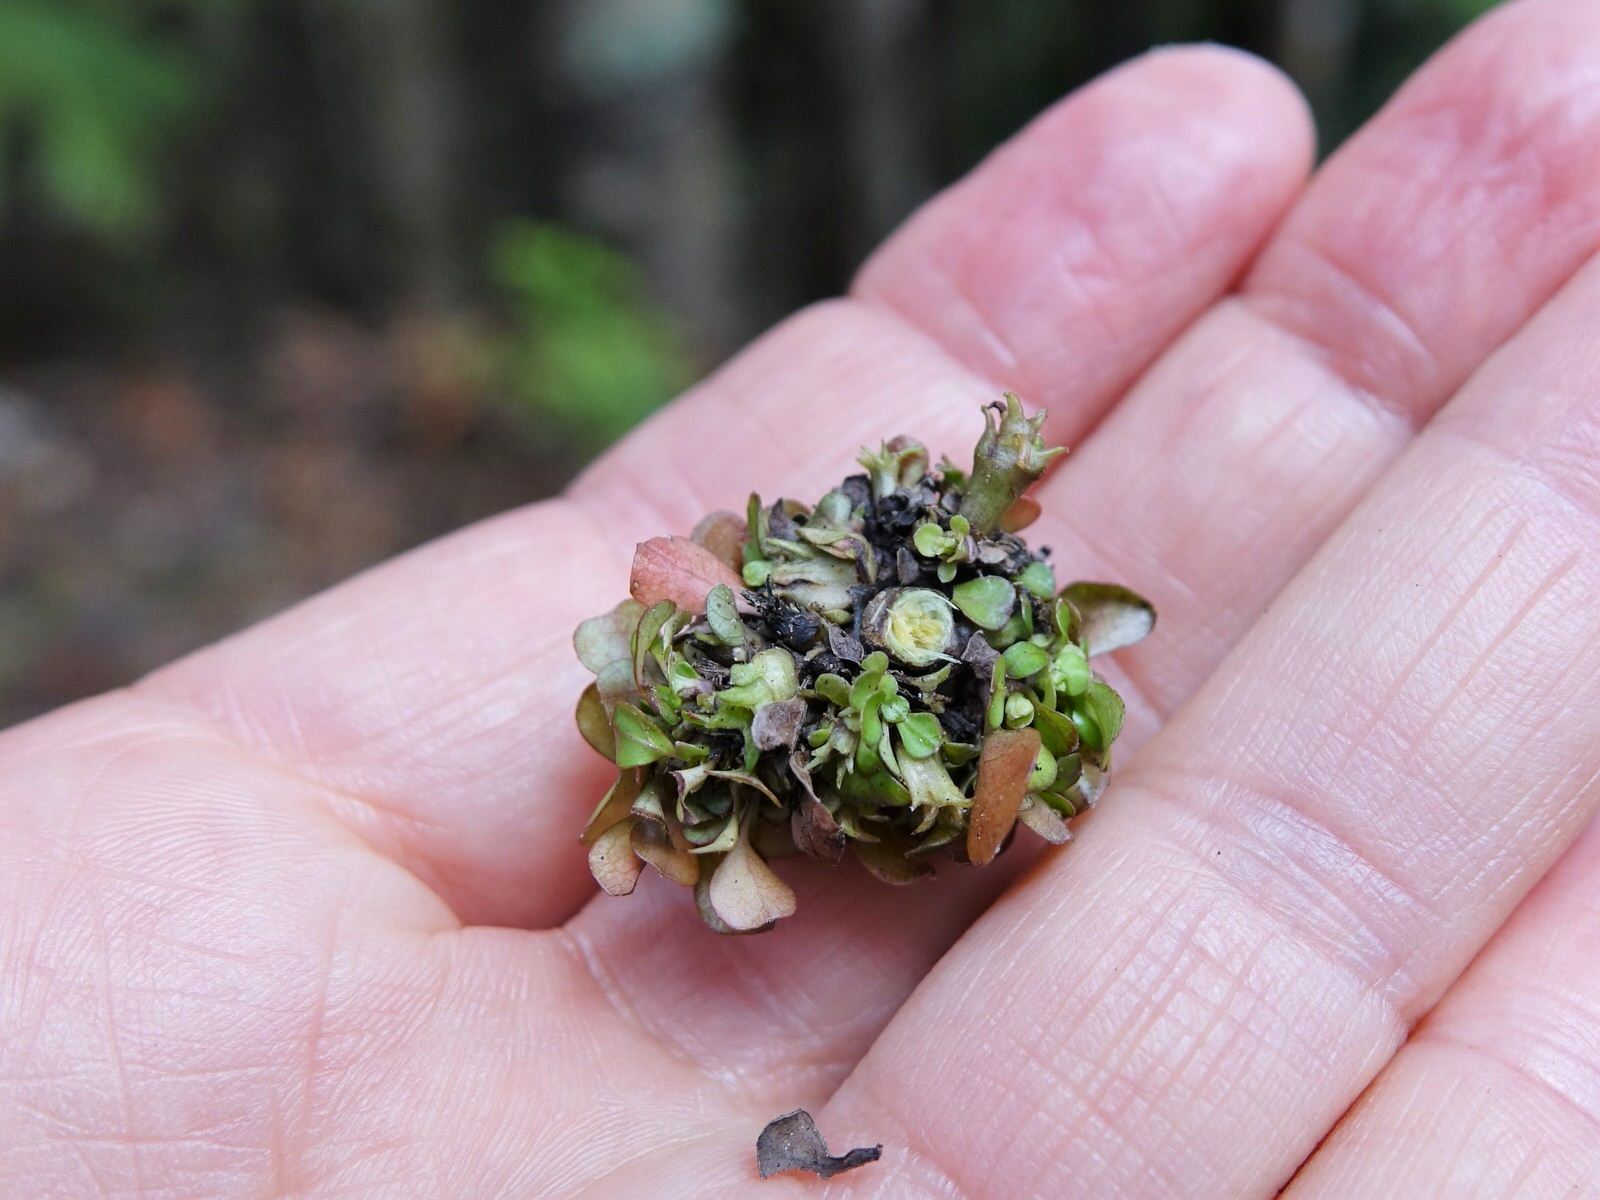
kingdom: Plantae
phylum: Tracheophyta
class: Magnoliopsida
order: Gentianales
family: Rubiaceae
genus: Coprosma
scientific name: Coprosma spathulata
